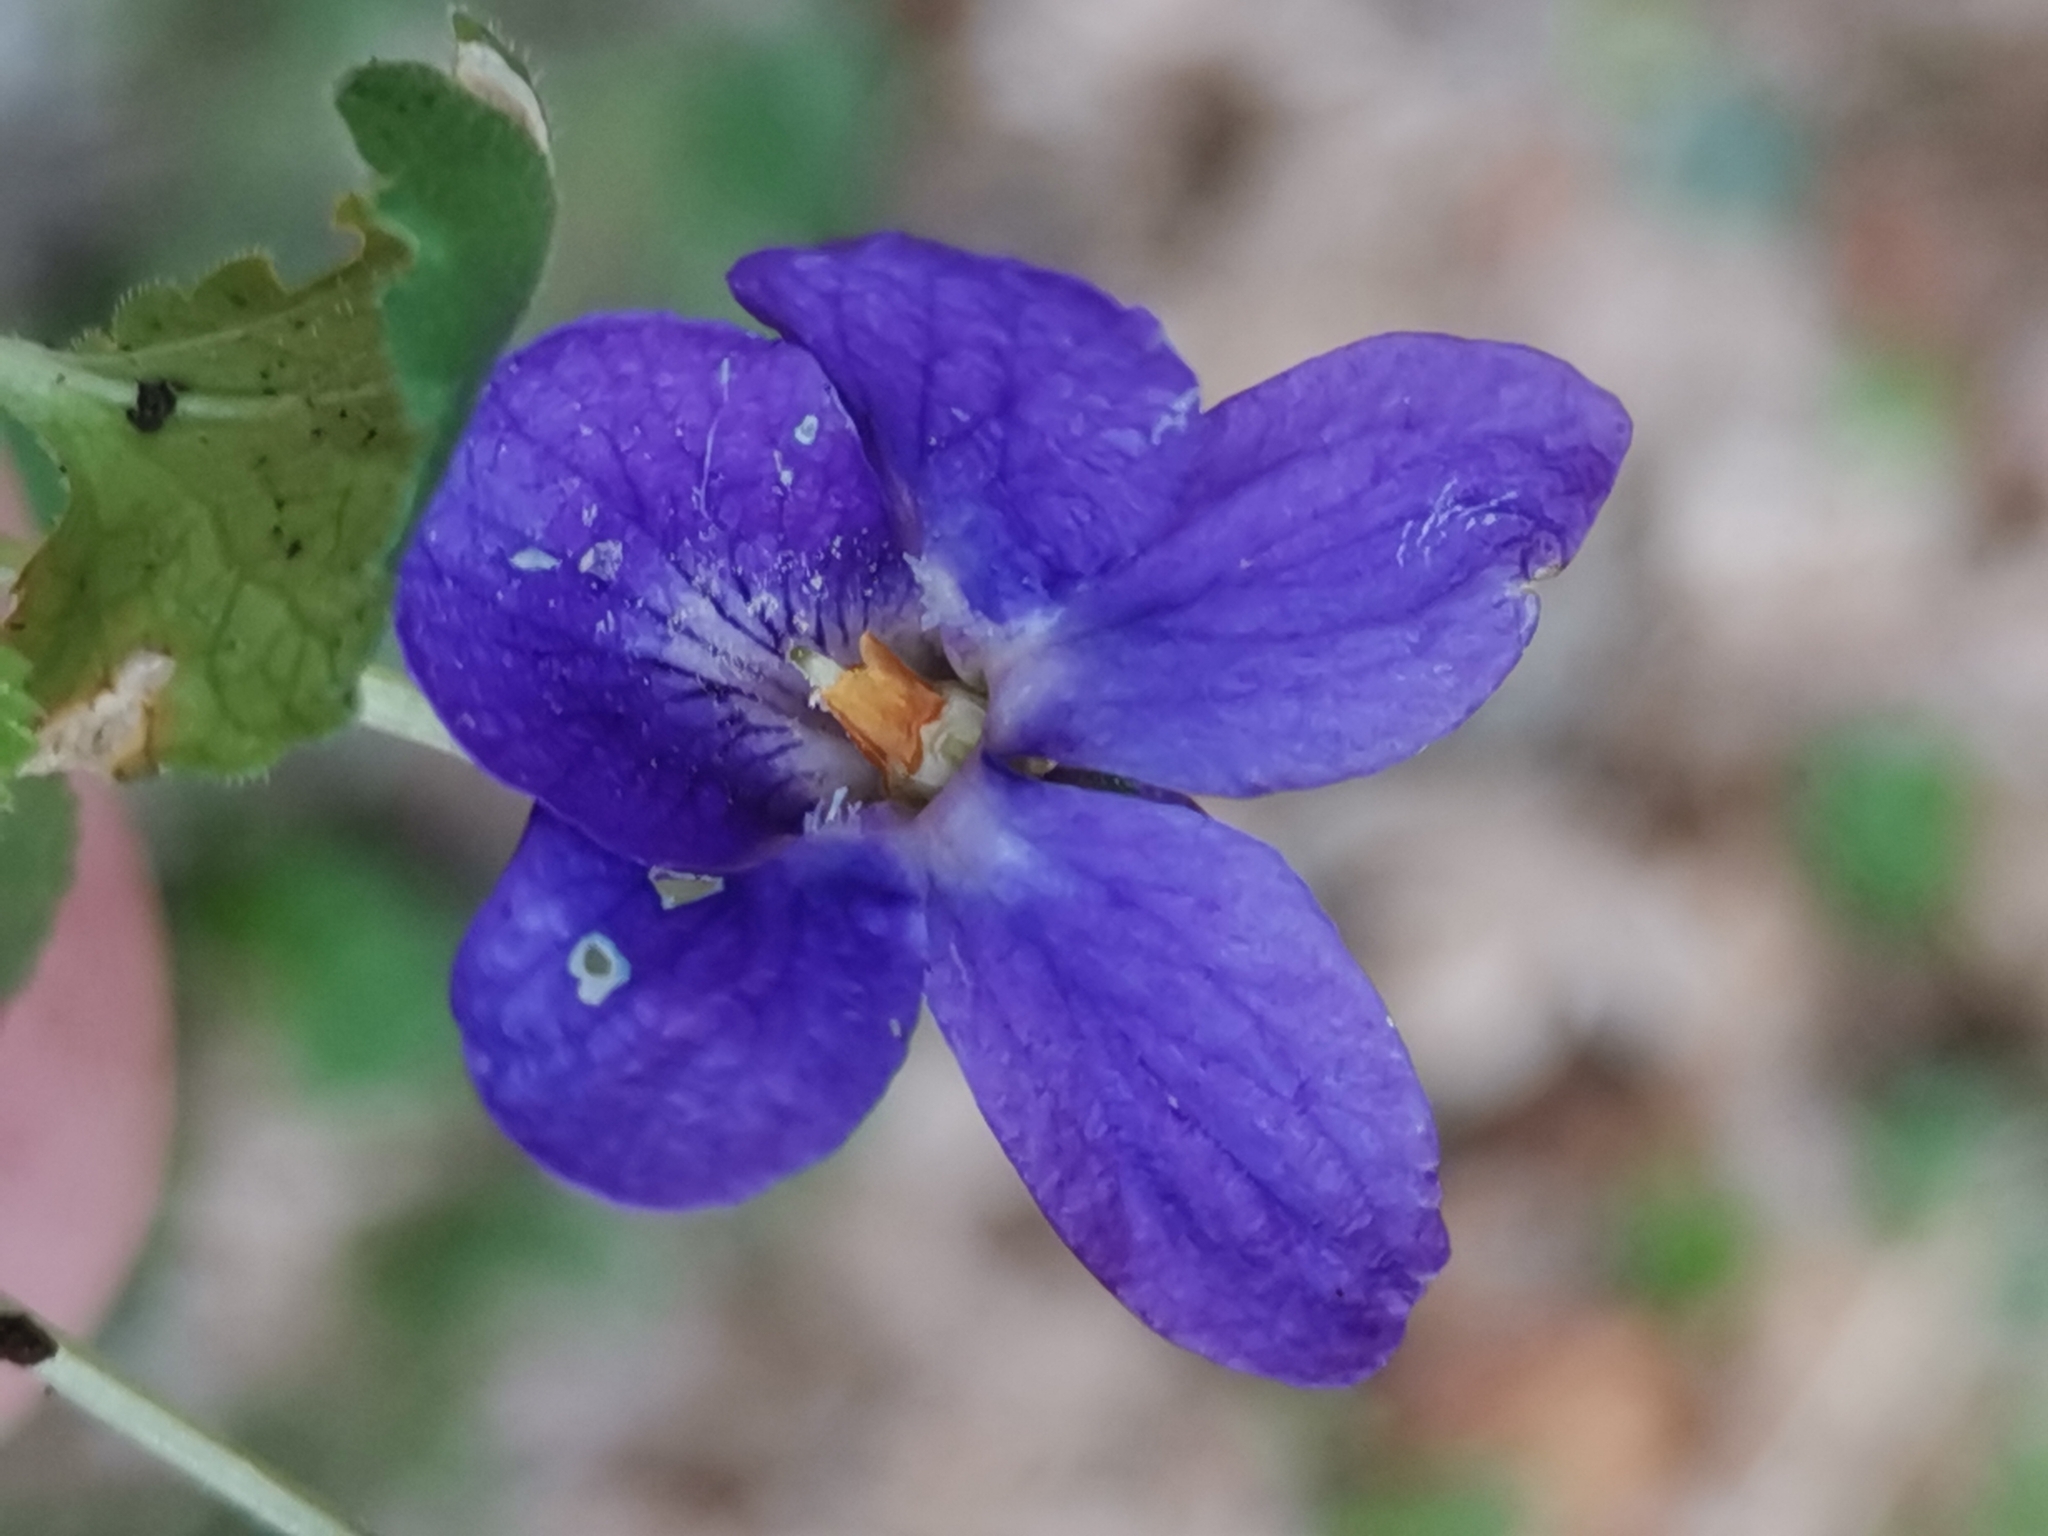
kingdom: Plantae
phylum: Tracheophyta
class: Magnoliopsida
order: Malpighiales
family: Violaceae
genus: Viola
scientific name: Viola odorata
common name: Sweet violet
